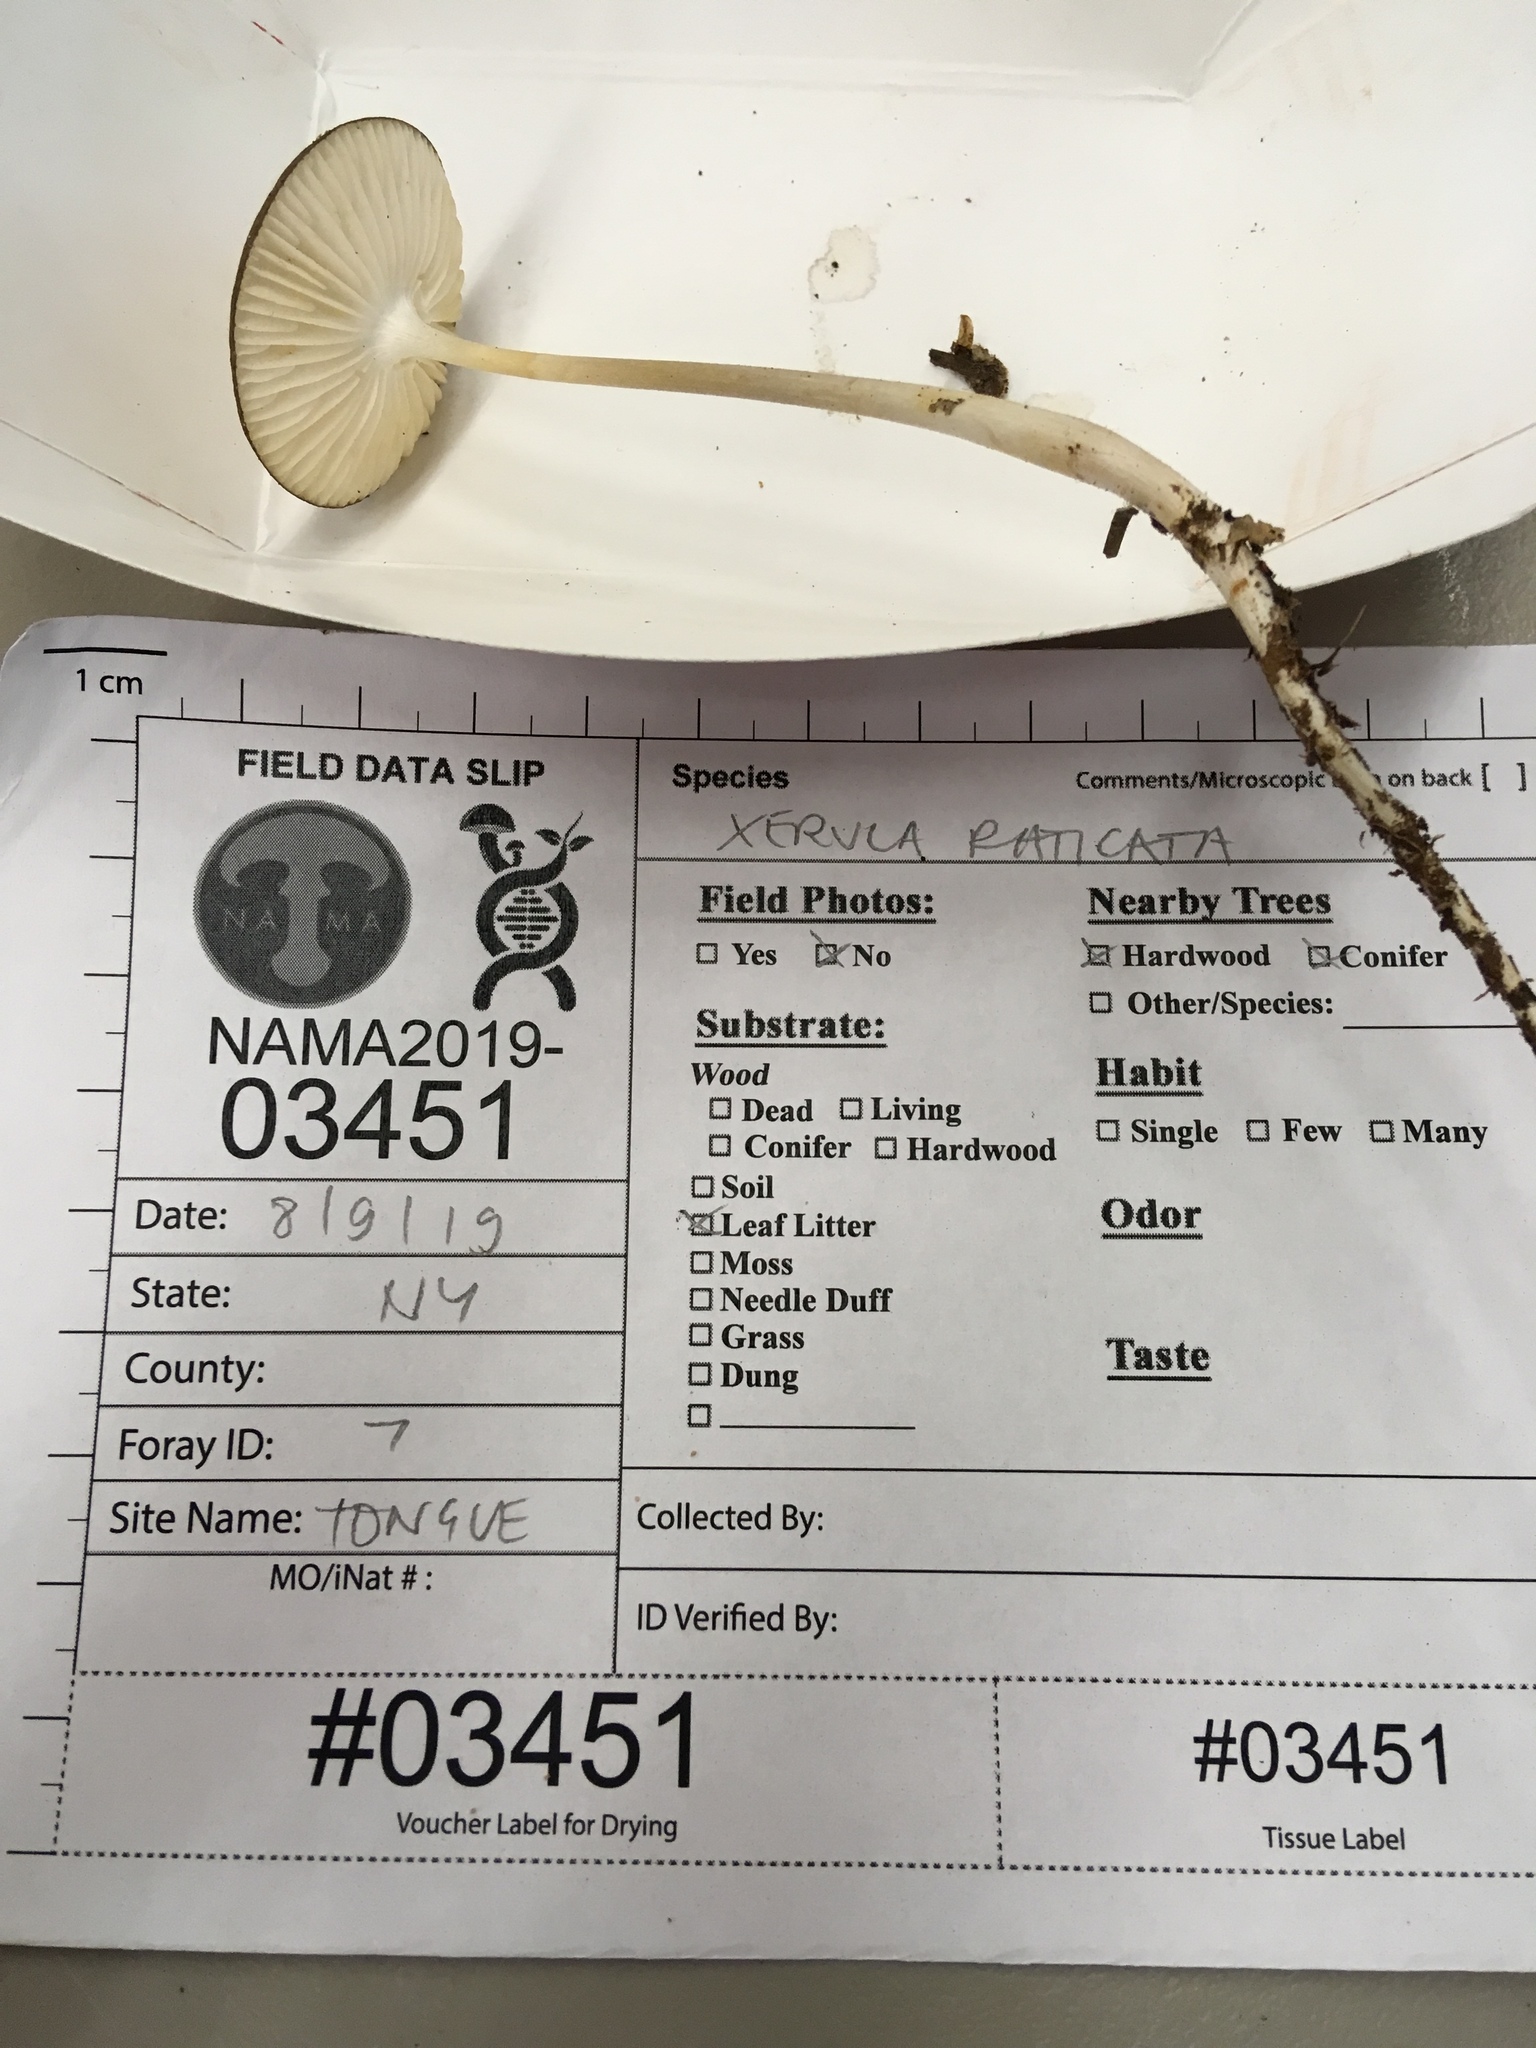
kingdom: Fungi
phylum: Basidiomycota
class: Agaricomycetes
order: Agaricales
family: Physalacriaceae
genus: Hymenopellis
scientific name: Hymenopellis furfuracea
